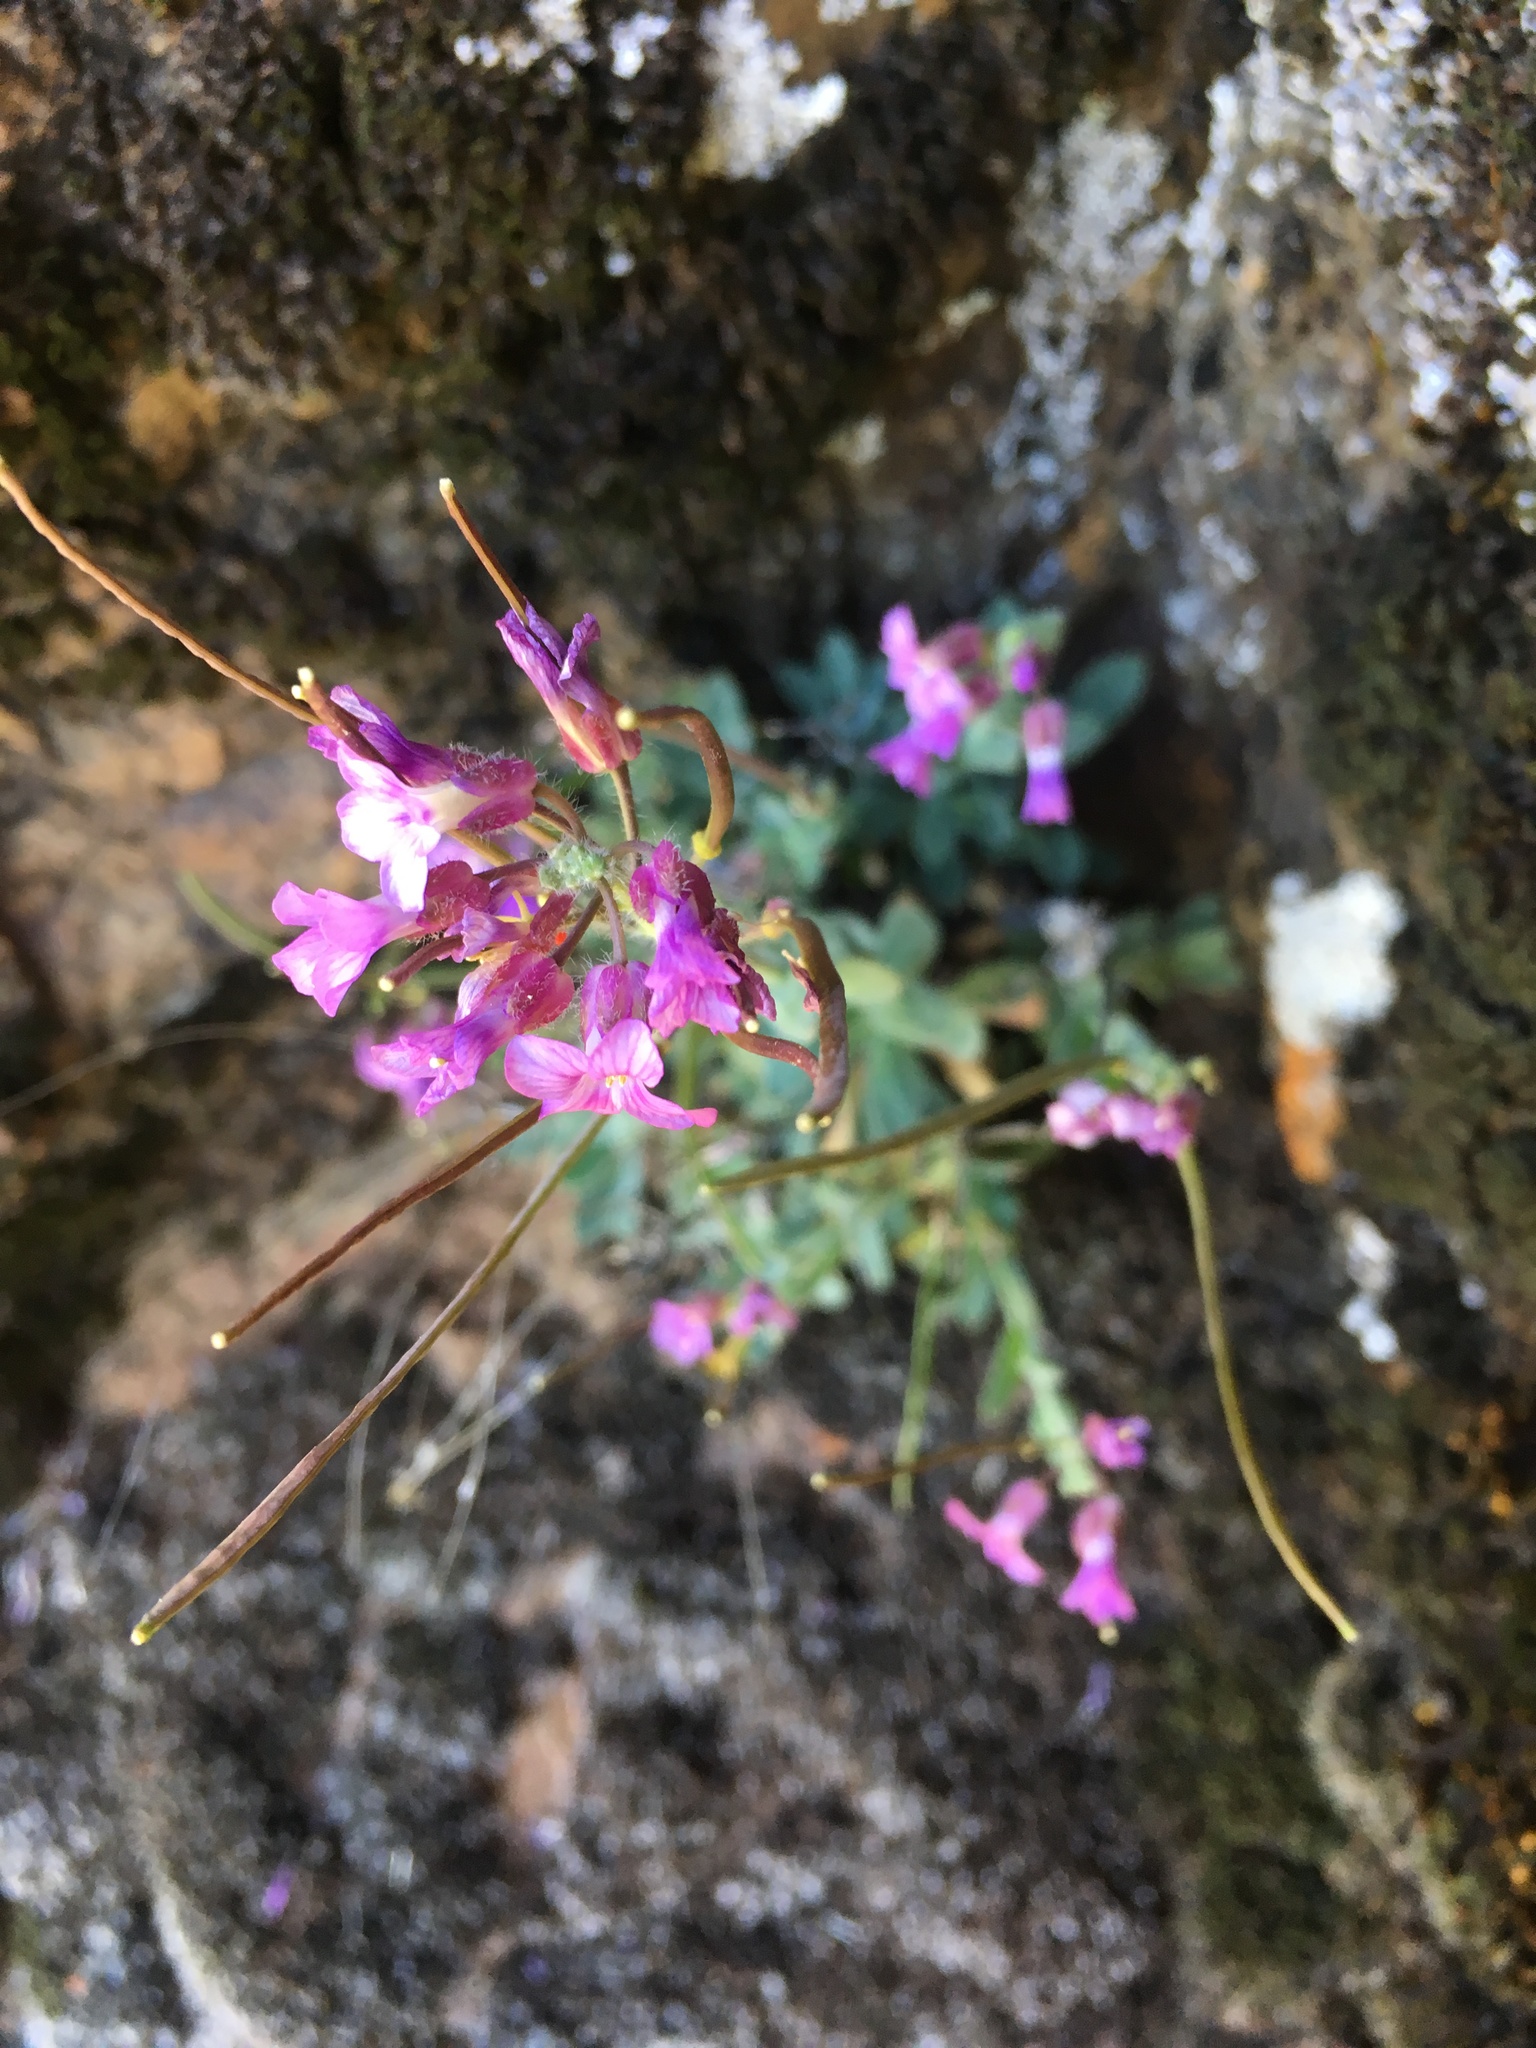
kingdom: Plantae
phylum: Tracheophyta
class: Magnoliopsida
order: Brassicales
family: Brassicaceae
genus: Boechera
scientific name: Boechera breweri
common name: Brewer's rockcress
